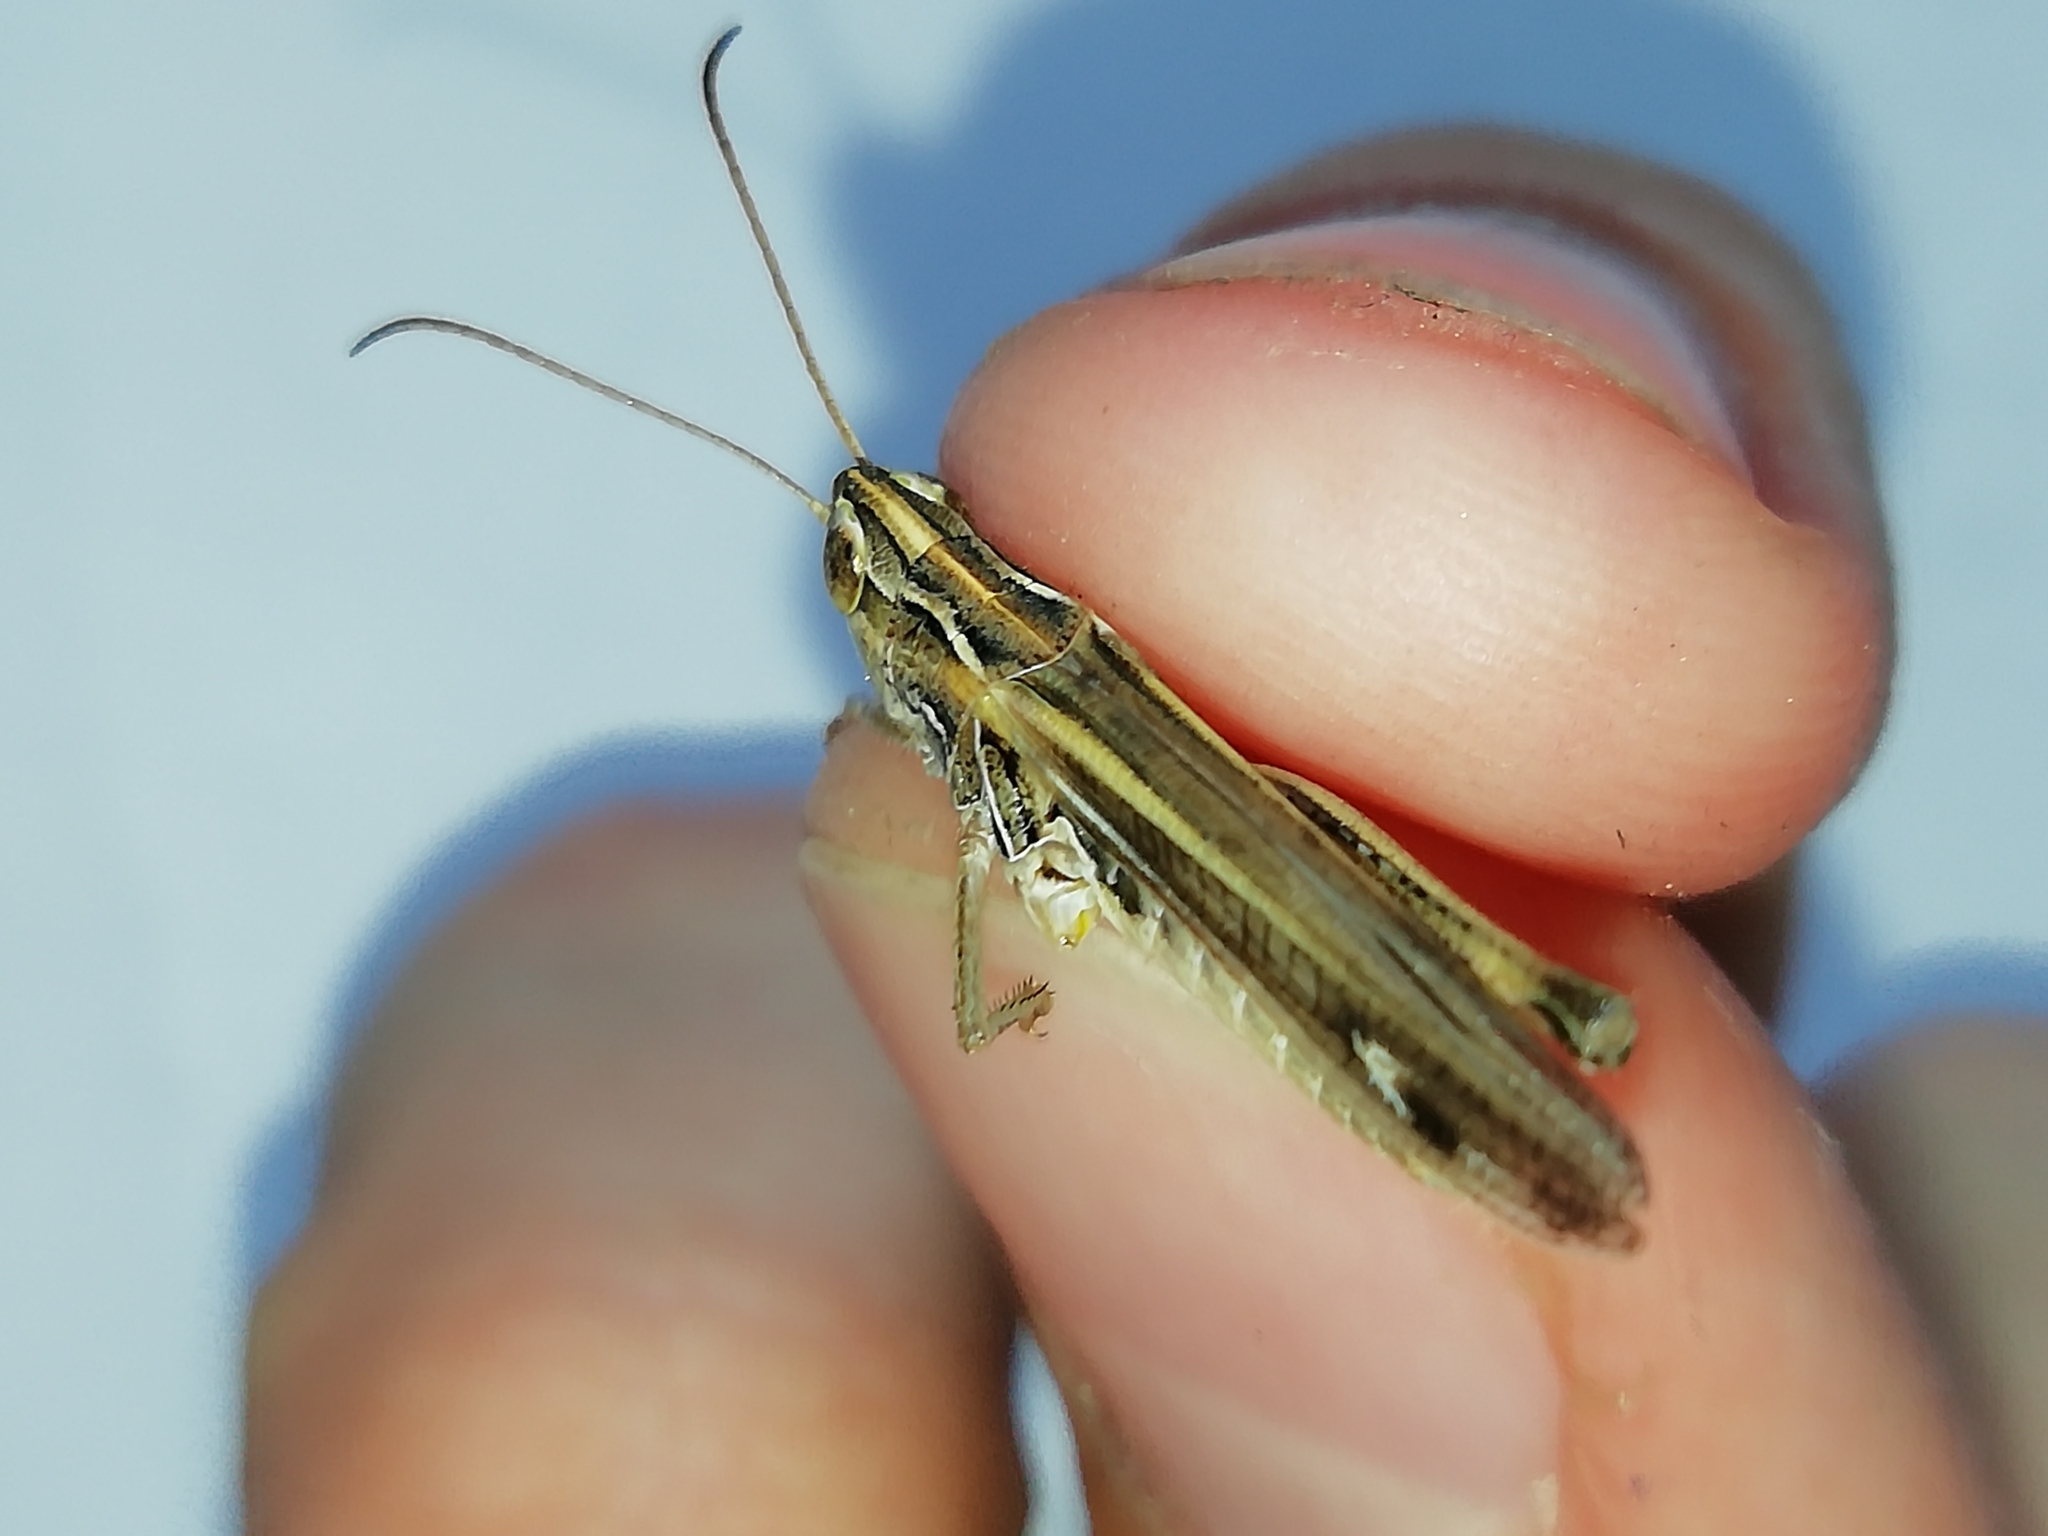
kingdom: Animalia
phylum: Arthropoda
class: Insecta
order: Orthoptera
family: Acrididae
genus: Stenobothrus
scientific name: Stenobothrus eurasius
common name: Eurasian toothed grasshopper
